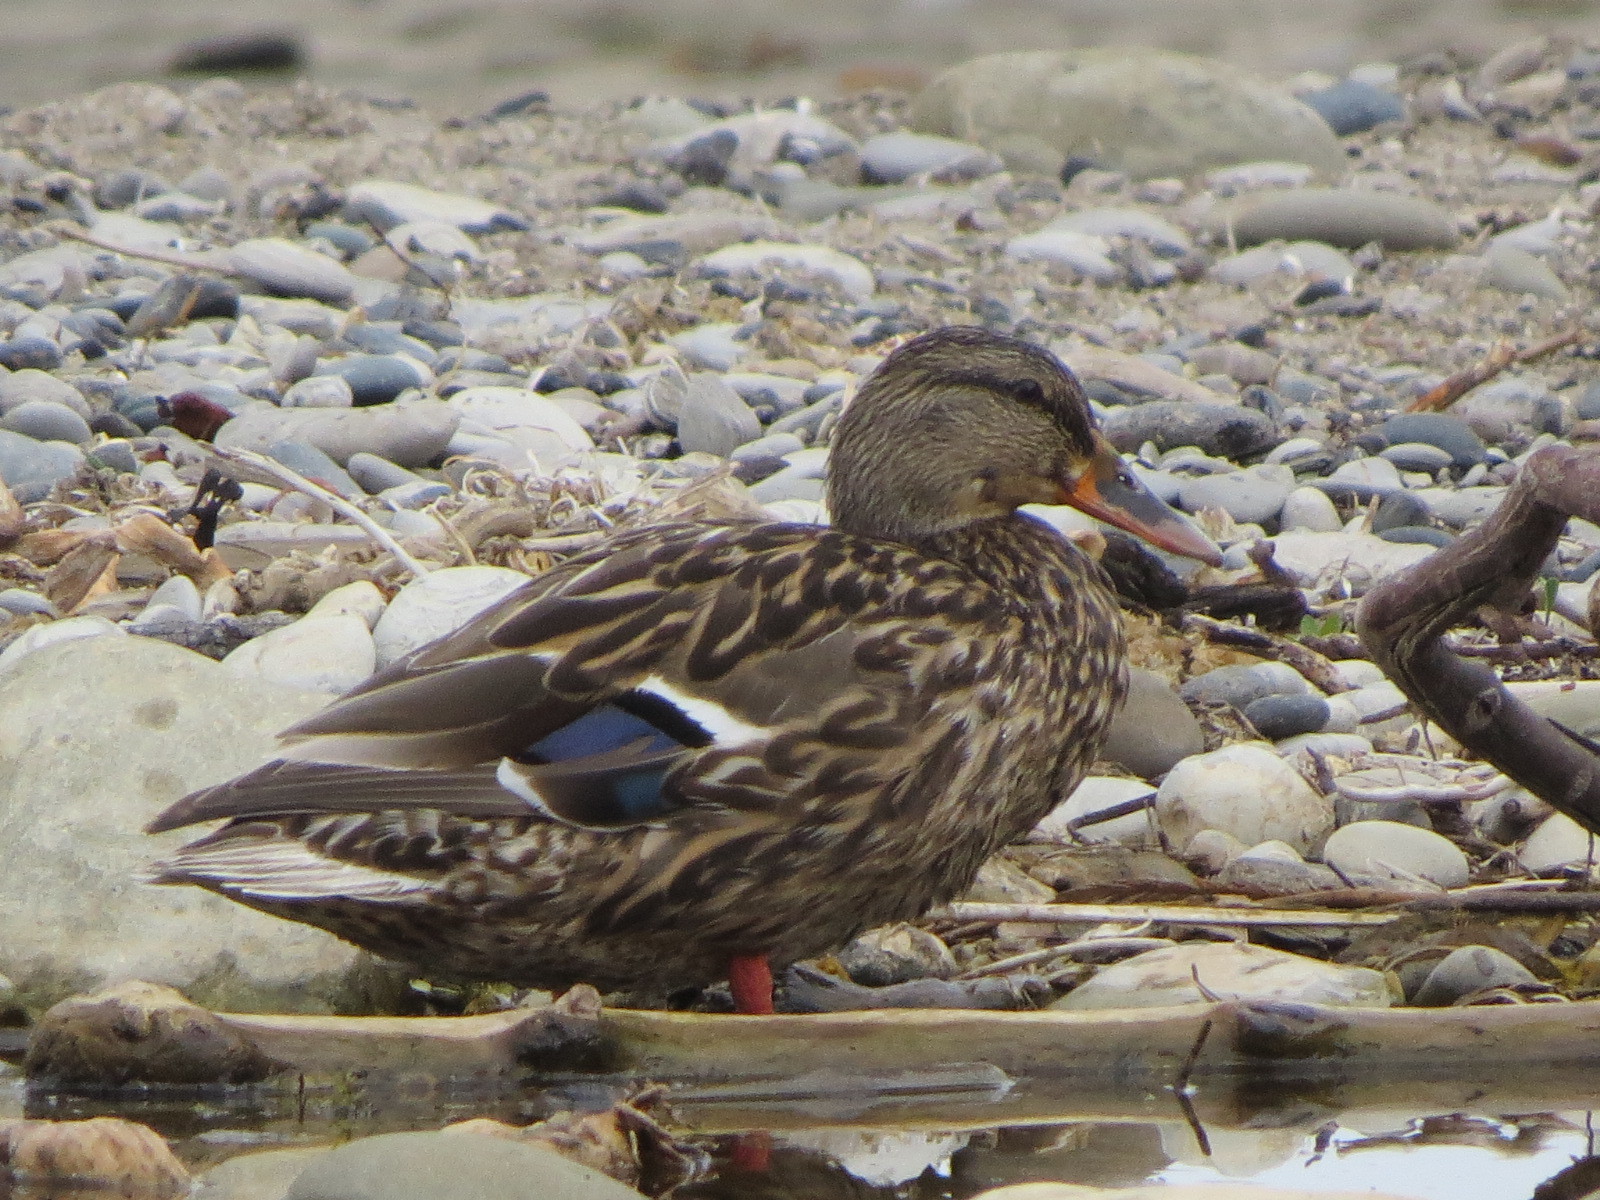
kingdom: Animalia
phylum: Chordata
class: Aves
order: Anseriformes
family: Anatidae
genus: Anas
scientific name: Anas platyrhynchos
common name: Mallard
